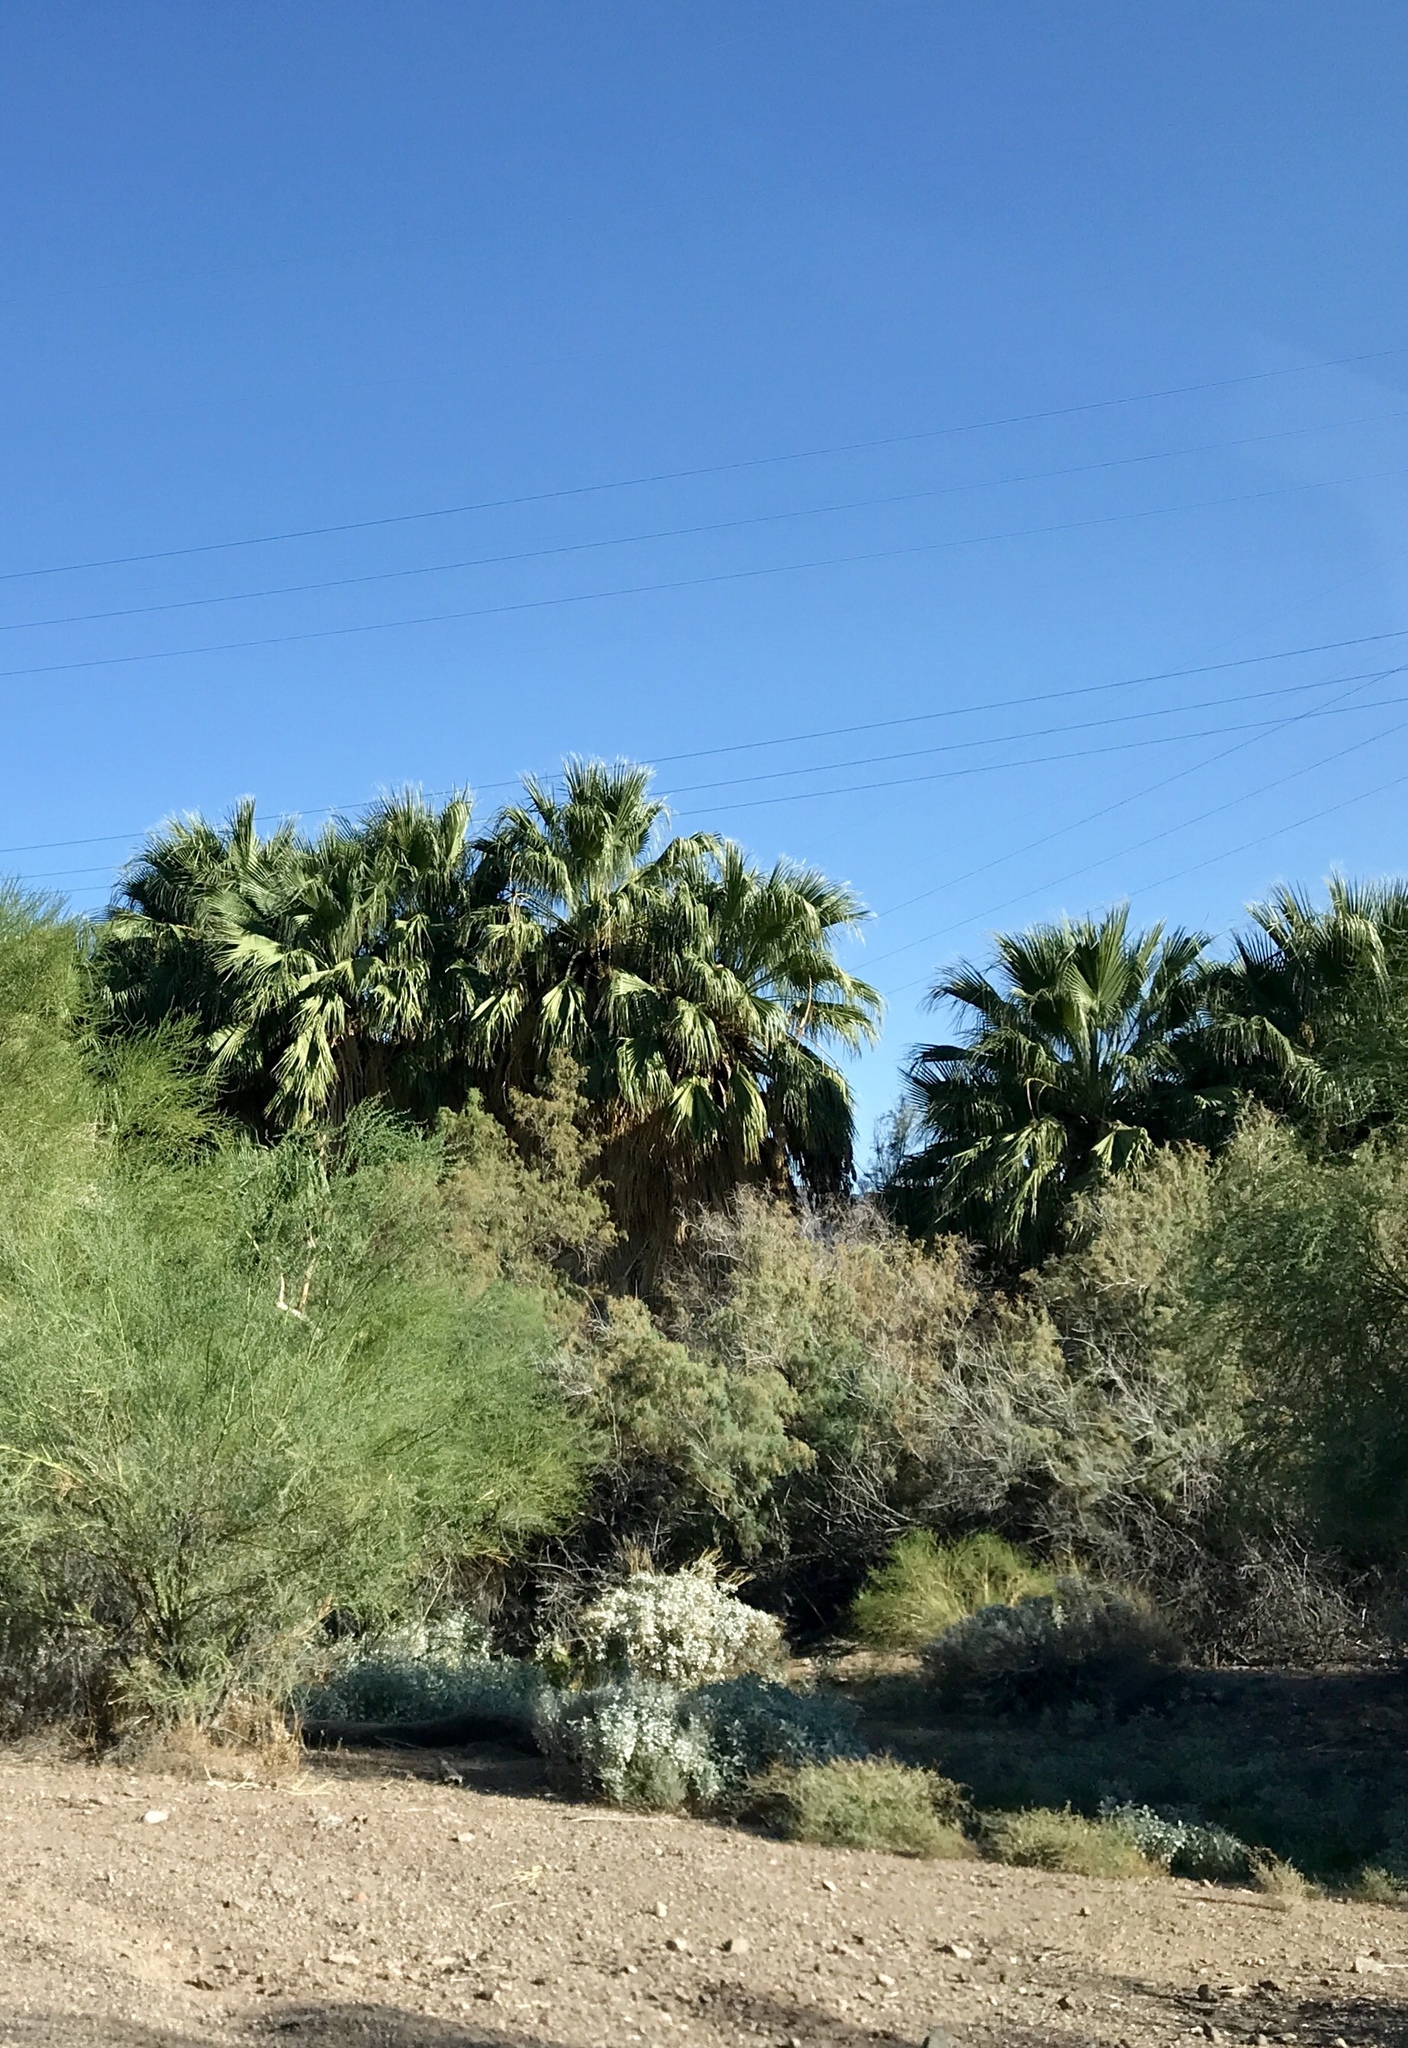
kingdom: Plantae
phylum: Tracheophyta
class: Liliopsida
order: Arecales
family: Arecaceae
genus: Washingtonia
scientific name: Washingtonia filifera
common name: California fan palm
